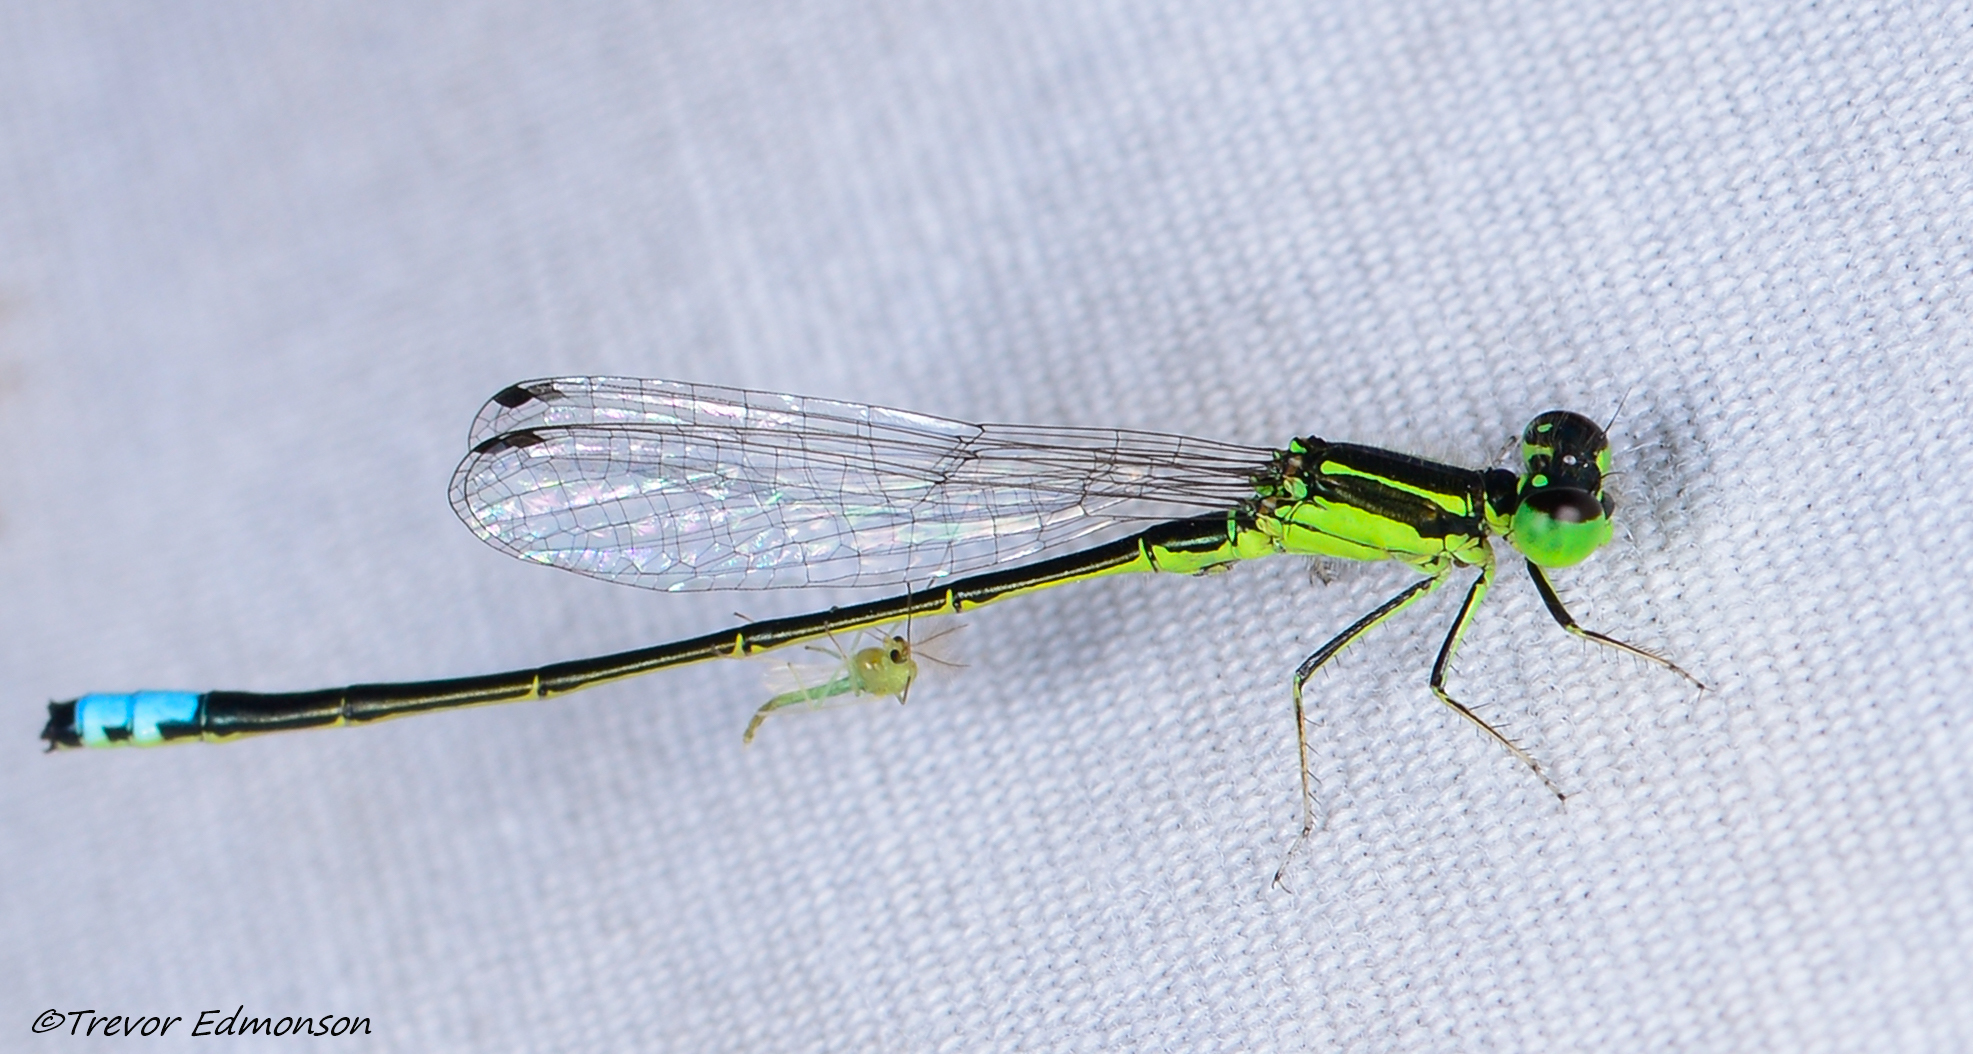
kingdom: Animalia
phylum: Arthropoda
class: Insecta
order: Odonata
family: Coenagrionidae
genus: Ischnura
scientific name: Ischnura verticalis
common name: Eastern forktail
